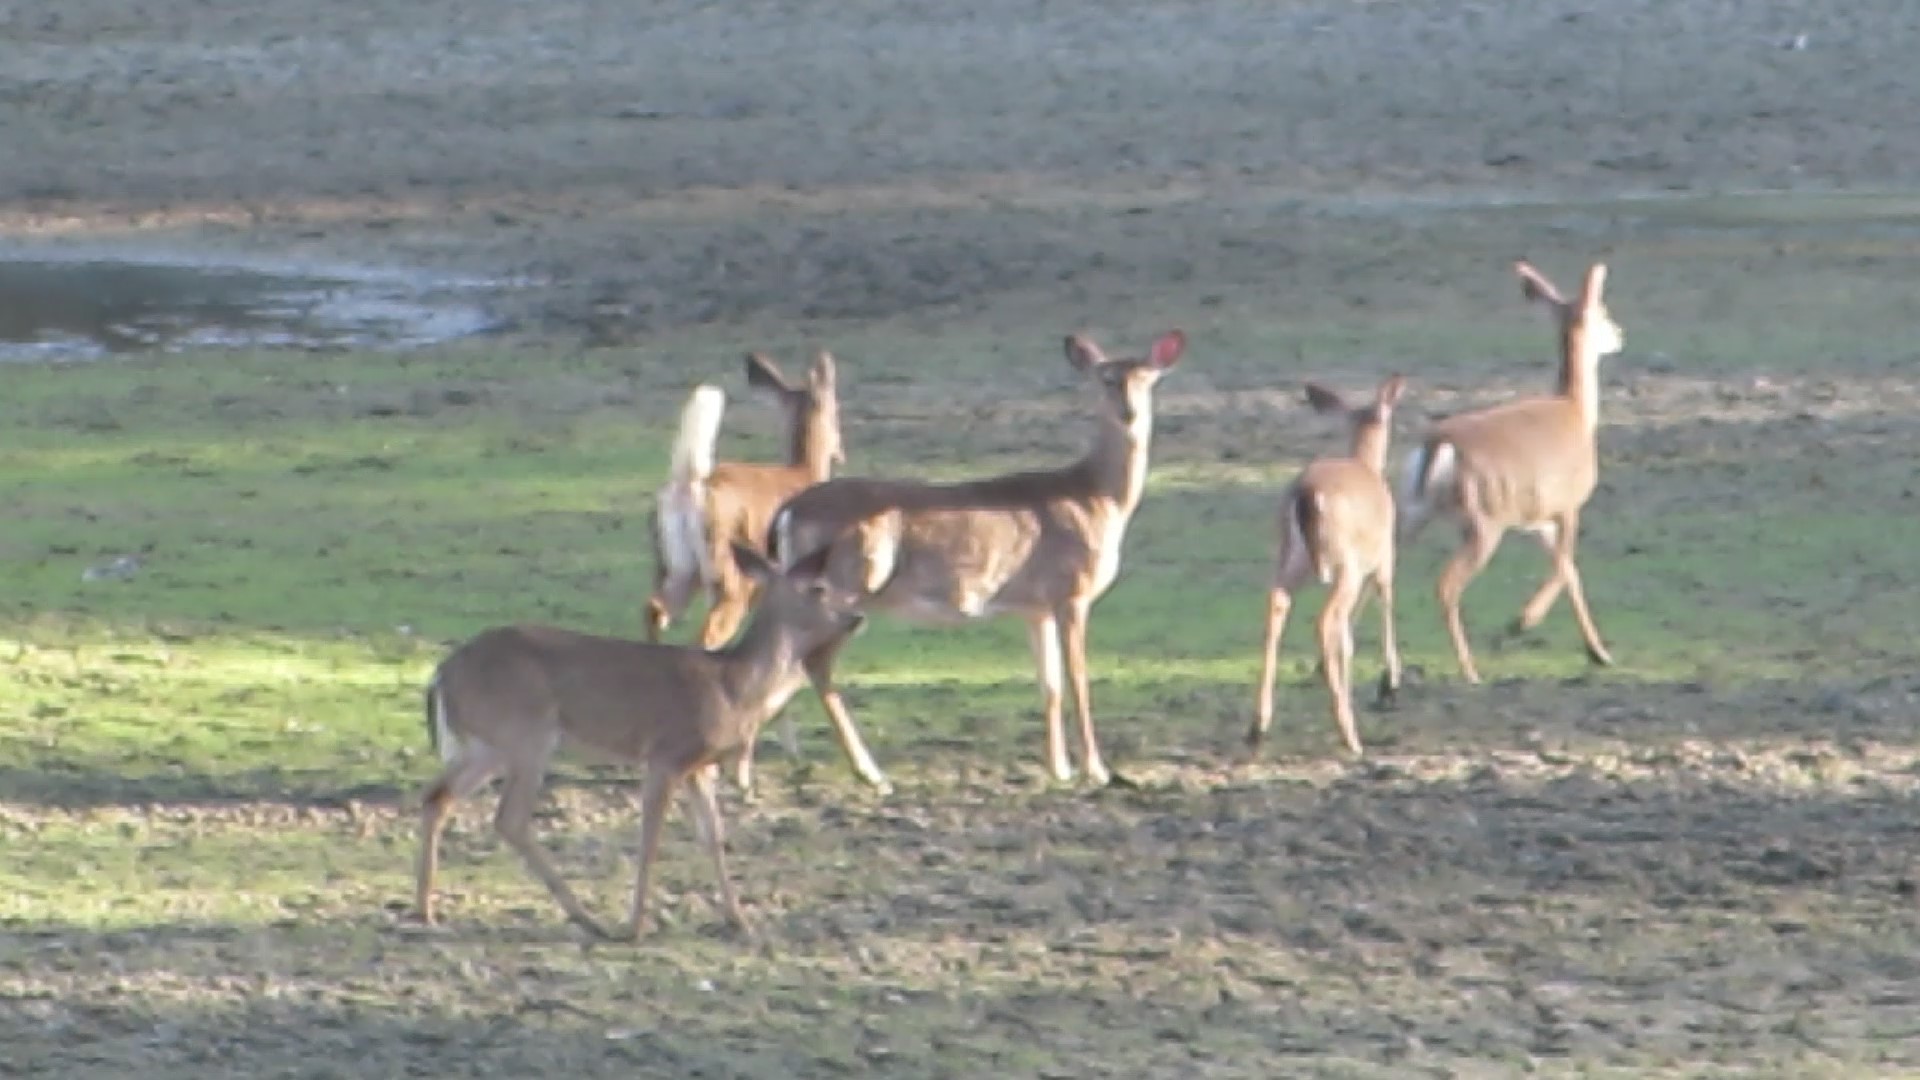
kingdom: Animalia
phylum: Chordata
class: Mammalia
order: Artiodactyla
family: Cervidae
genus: Odocoileus
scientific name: Odocoileus virginianus
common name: White-tailed deer
